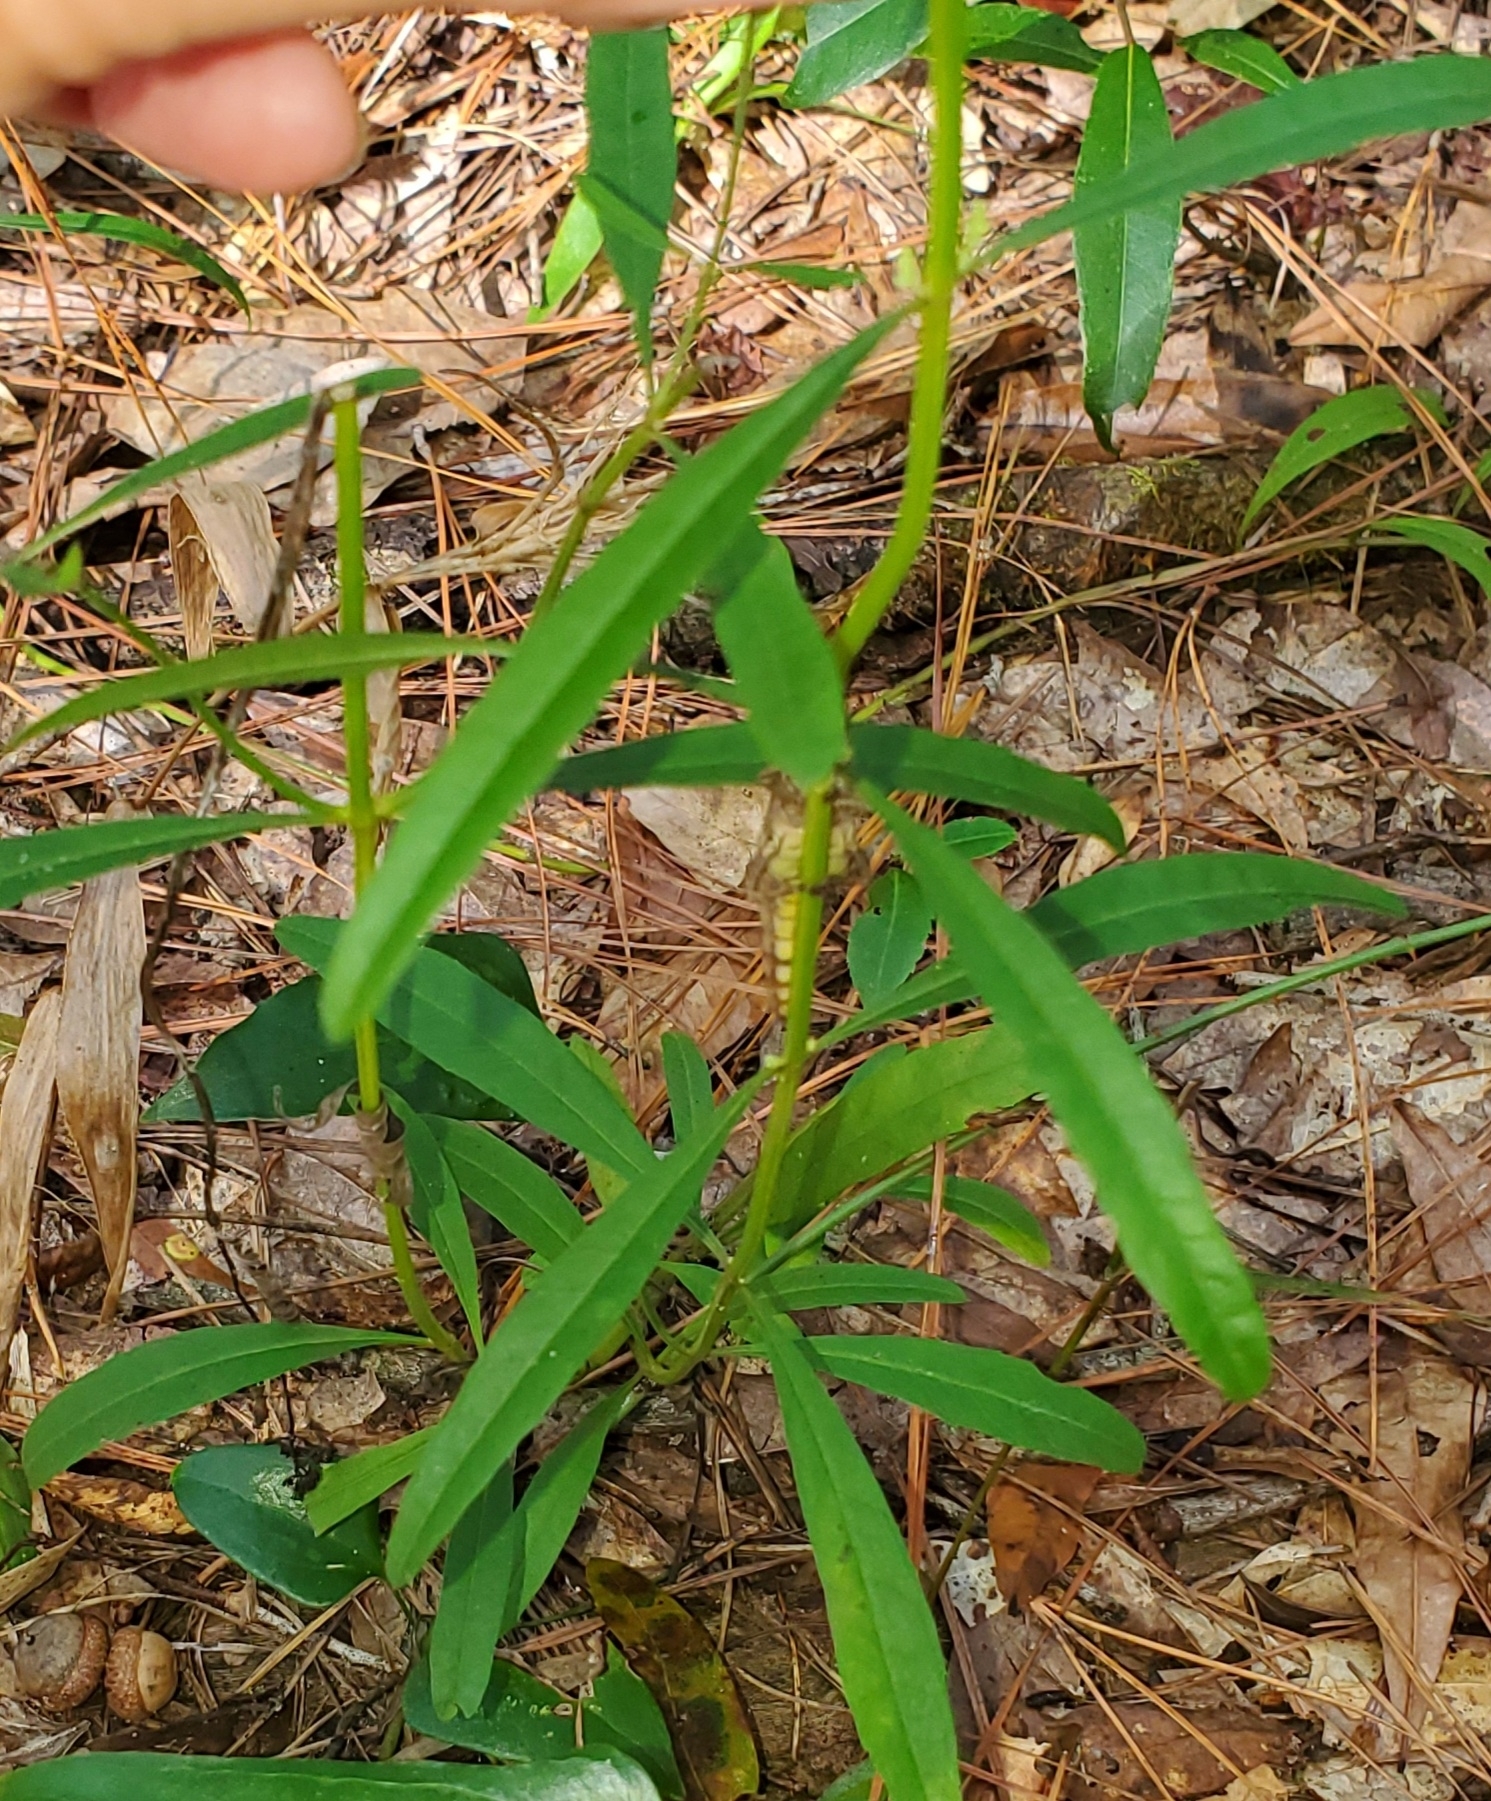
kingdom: Plantae
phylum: Tracheophyta
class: Magnoliopsida
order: Lamiales
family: Lamiaceae
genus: Salvia
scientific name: Salvia azurea
